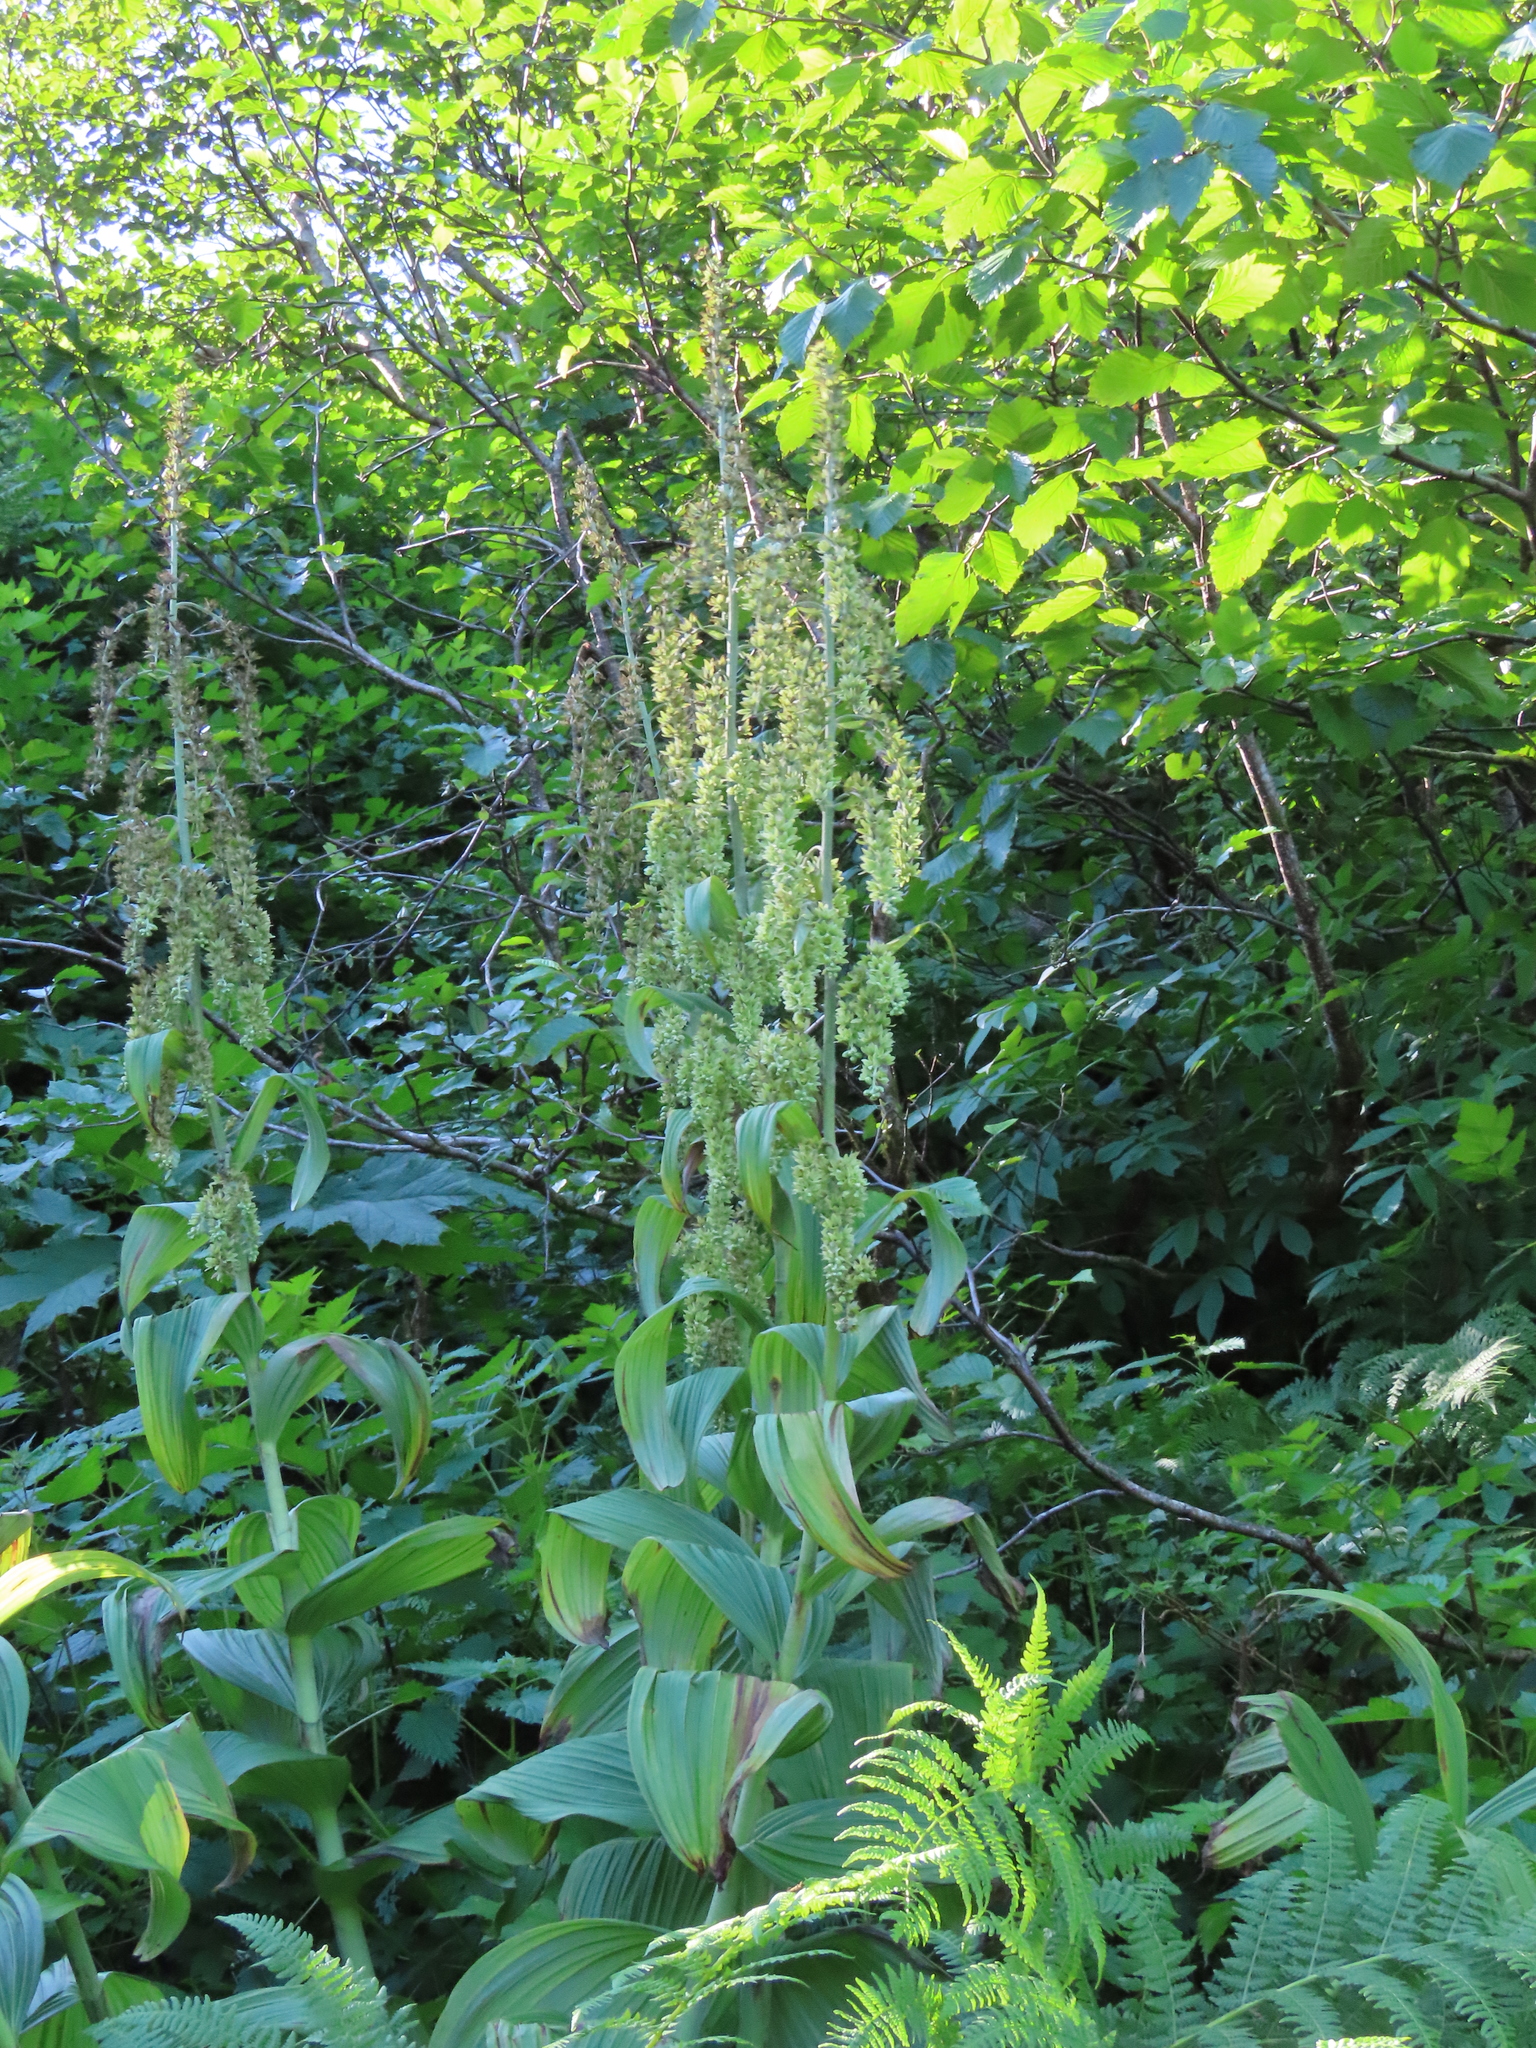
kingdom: Plantae
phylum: Tracheophyta
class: Liliopsida
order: Liliales
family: Melanthiaceae
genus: Veratrum
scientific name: Veratrum viride
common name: American false hellebore
